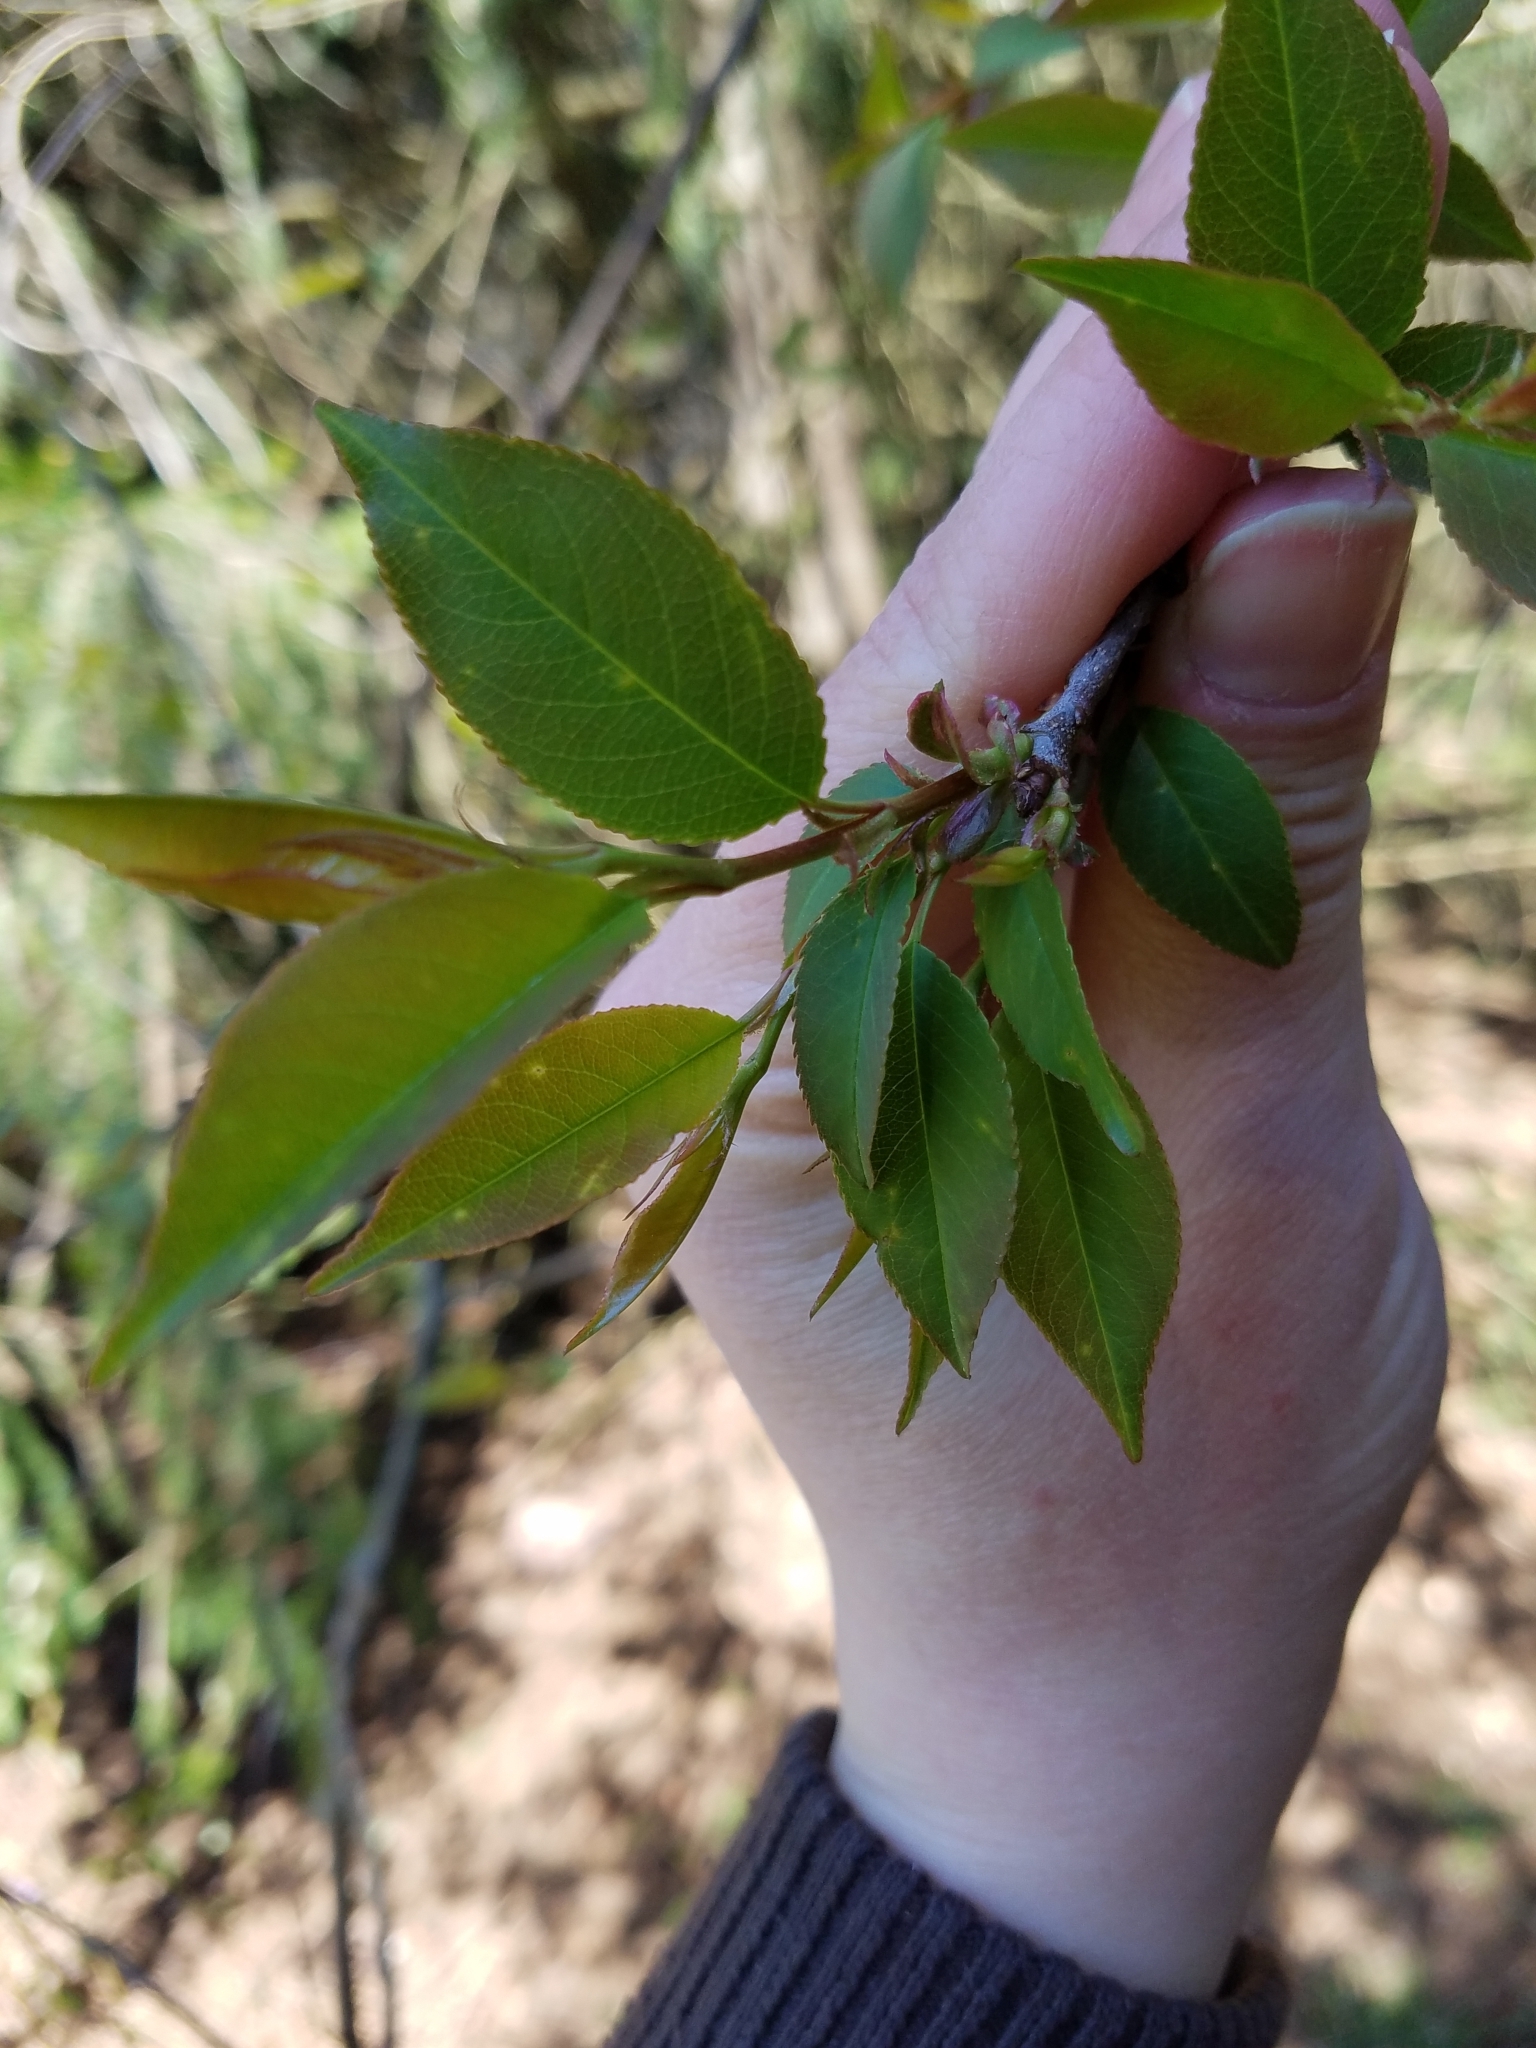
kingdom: Plantae
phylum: Tracheophyta
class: Magnoliopsida
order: Rosales
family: Rosaceae
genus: Prunus
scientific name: Prunus serotina
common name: Black cherry
